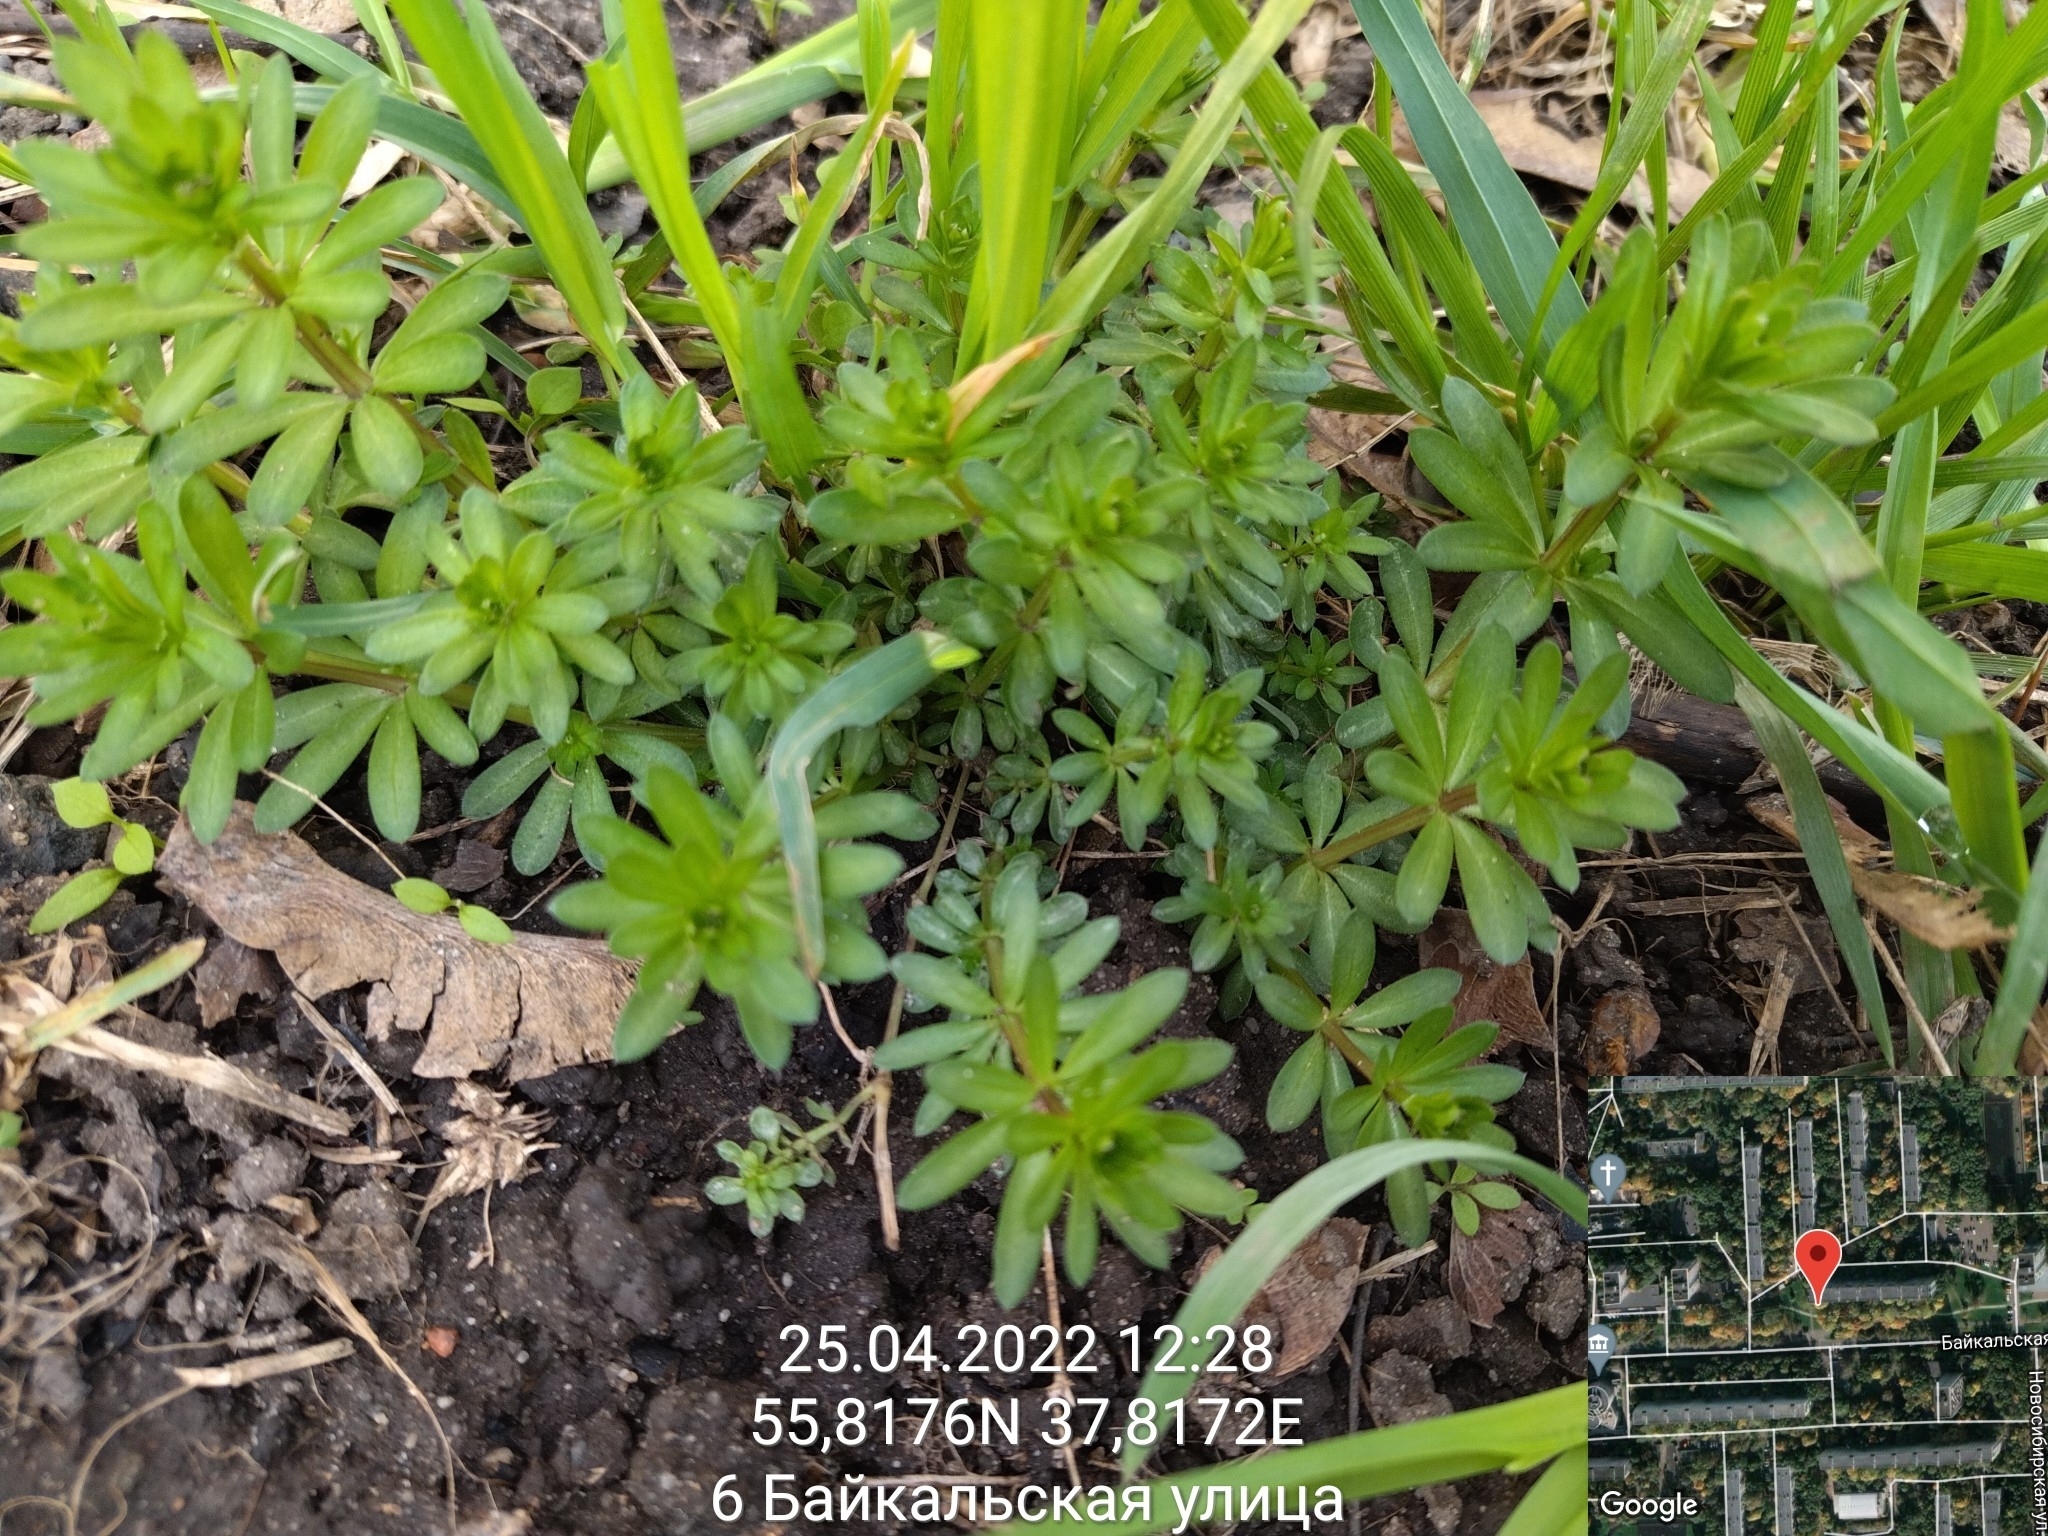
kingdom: Plantae
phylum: Tracheophyta
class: Magnoliopsida
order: Gentianales
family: Rubiaceae
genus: Galium
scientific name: Galium mollugo
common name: Hedge bedstraw
